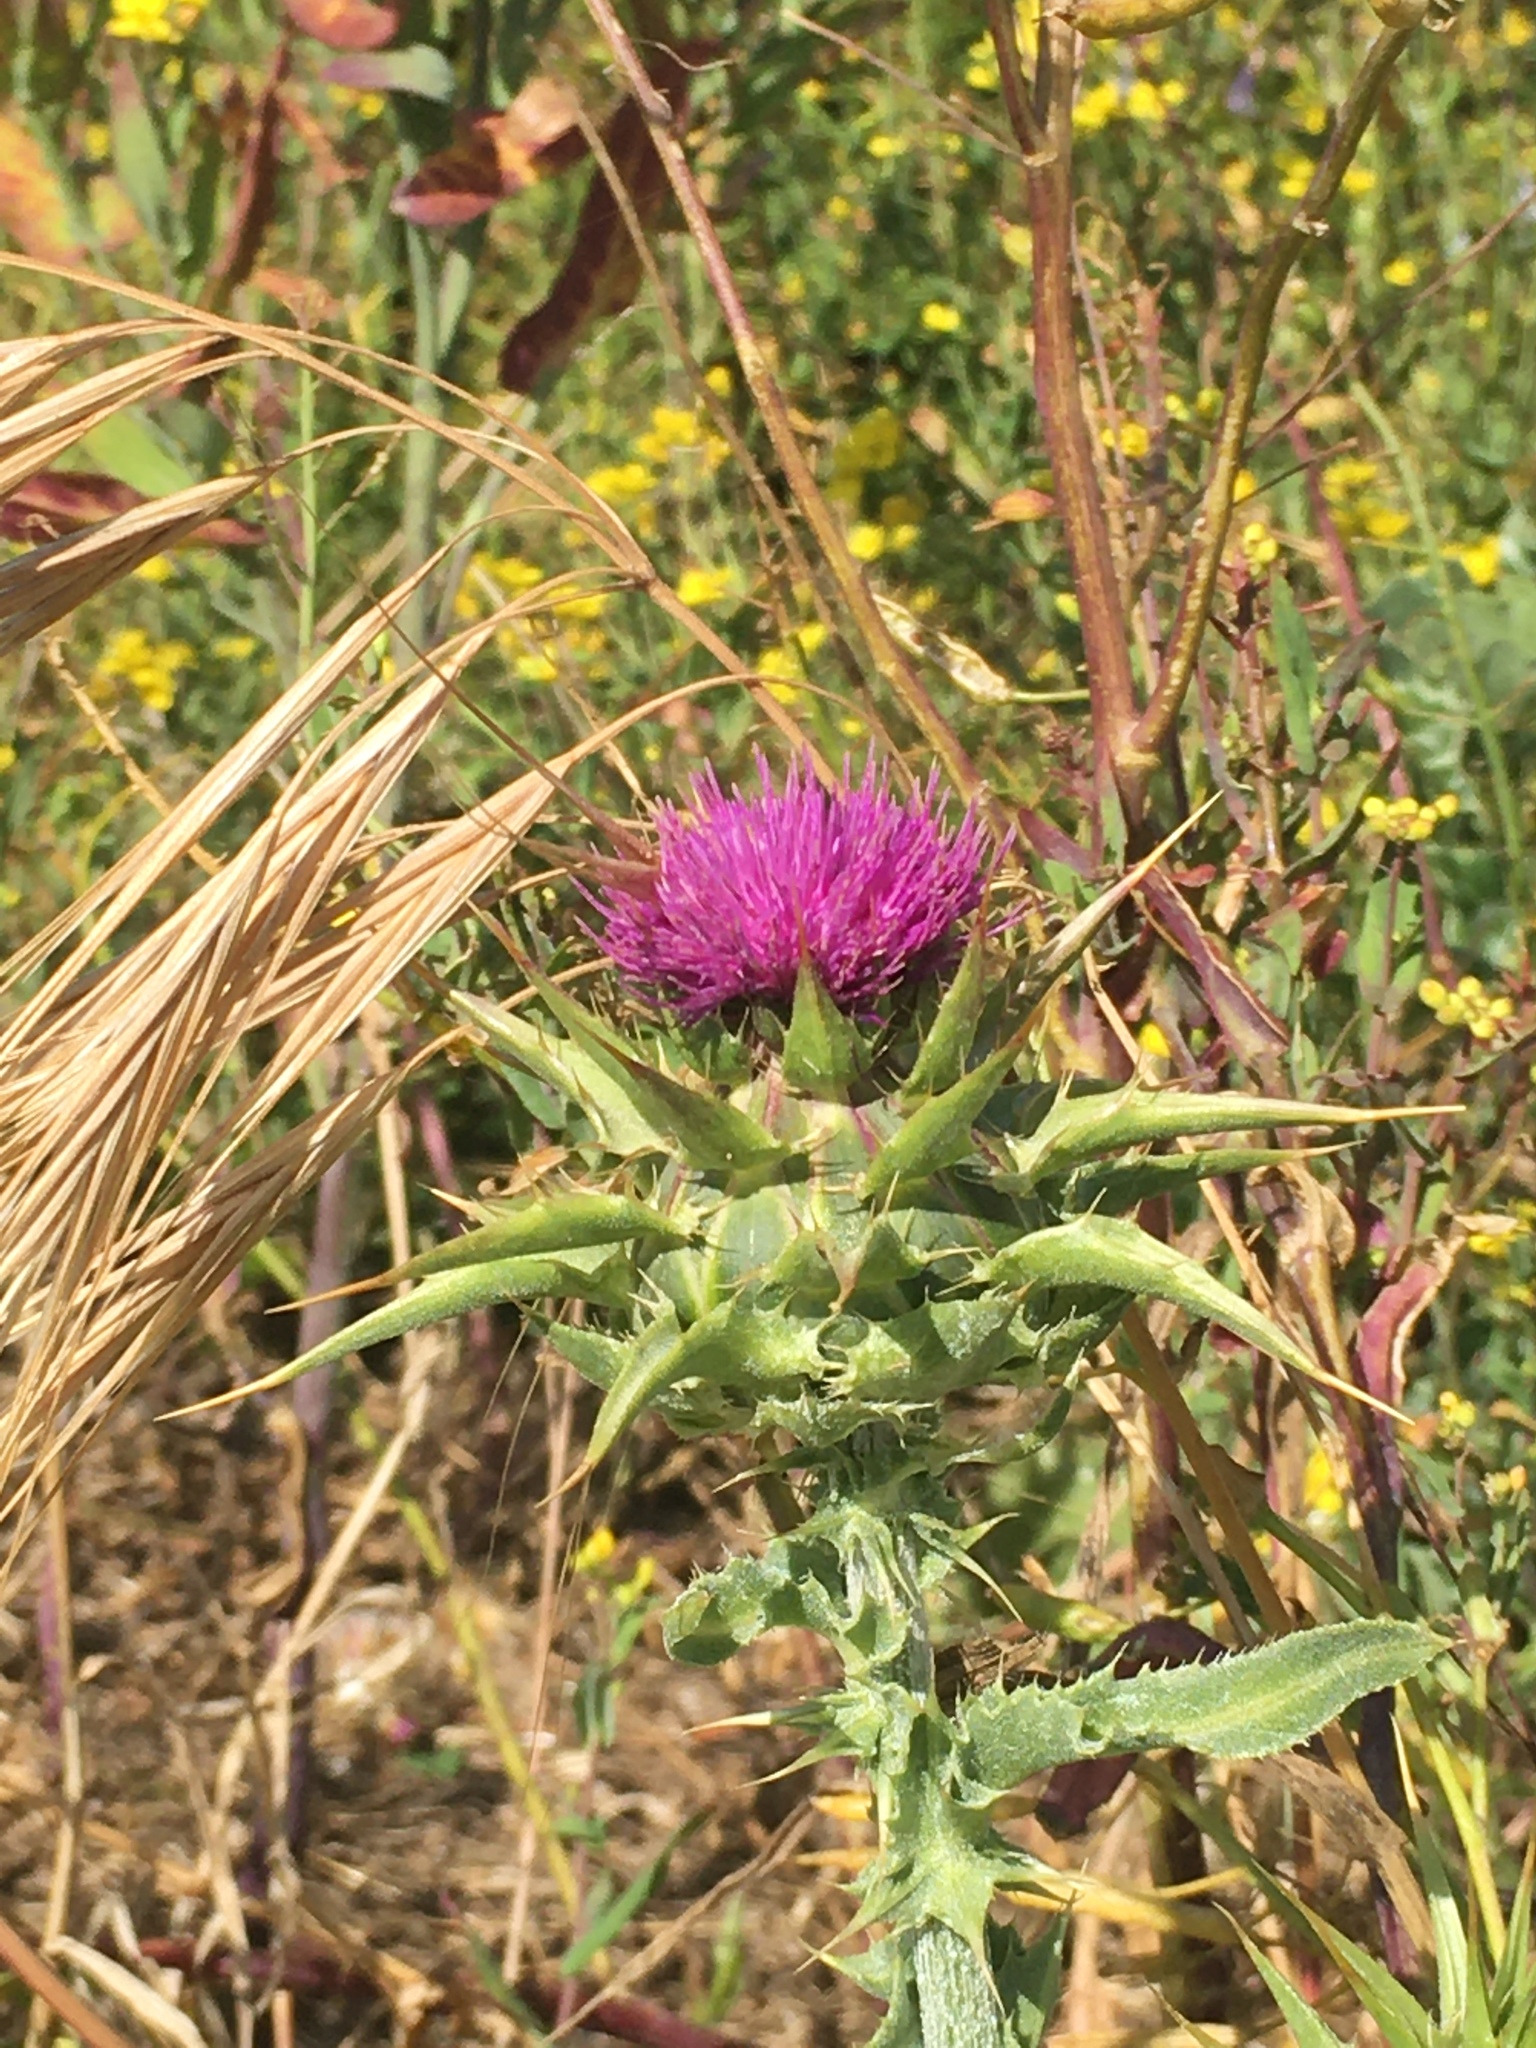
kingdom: Plantae
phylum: Tracheophyta
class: Magnoliopsida
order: Asterales
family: Asteraceae
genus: Silybum
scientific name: Silybum marianum
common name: Milk thistle
